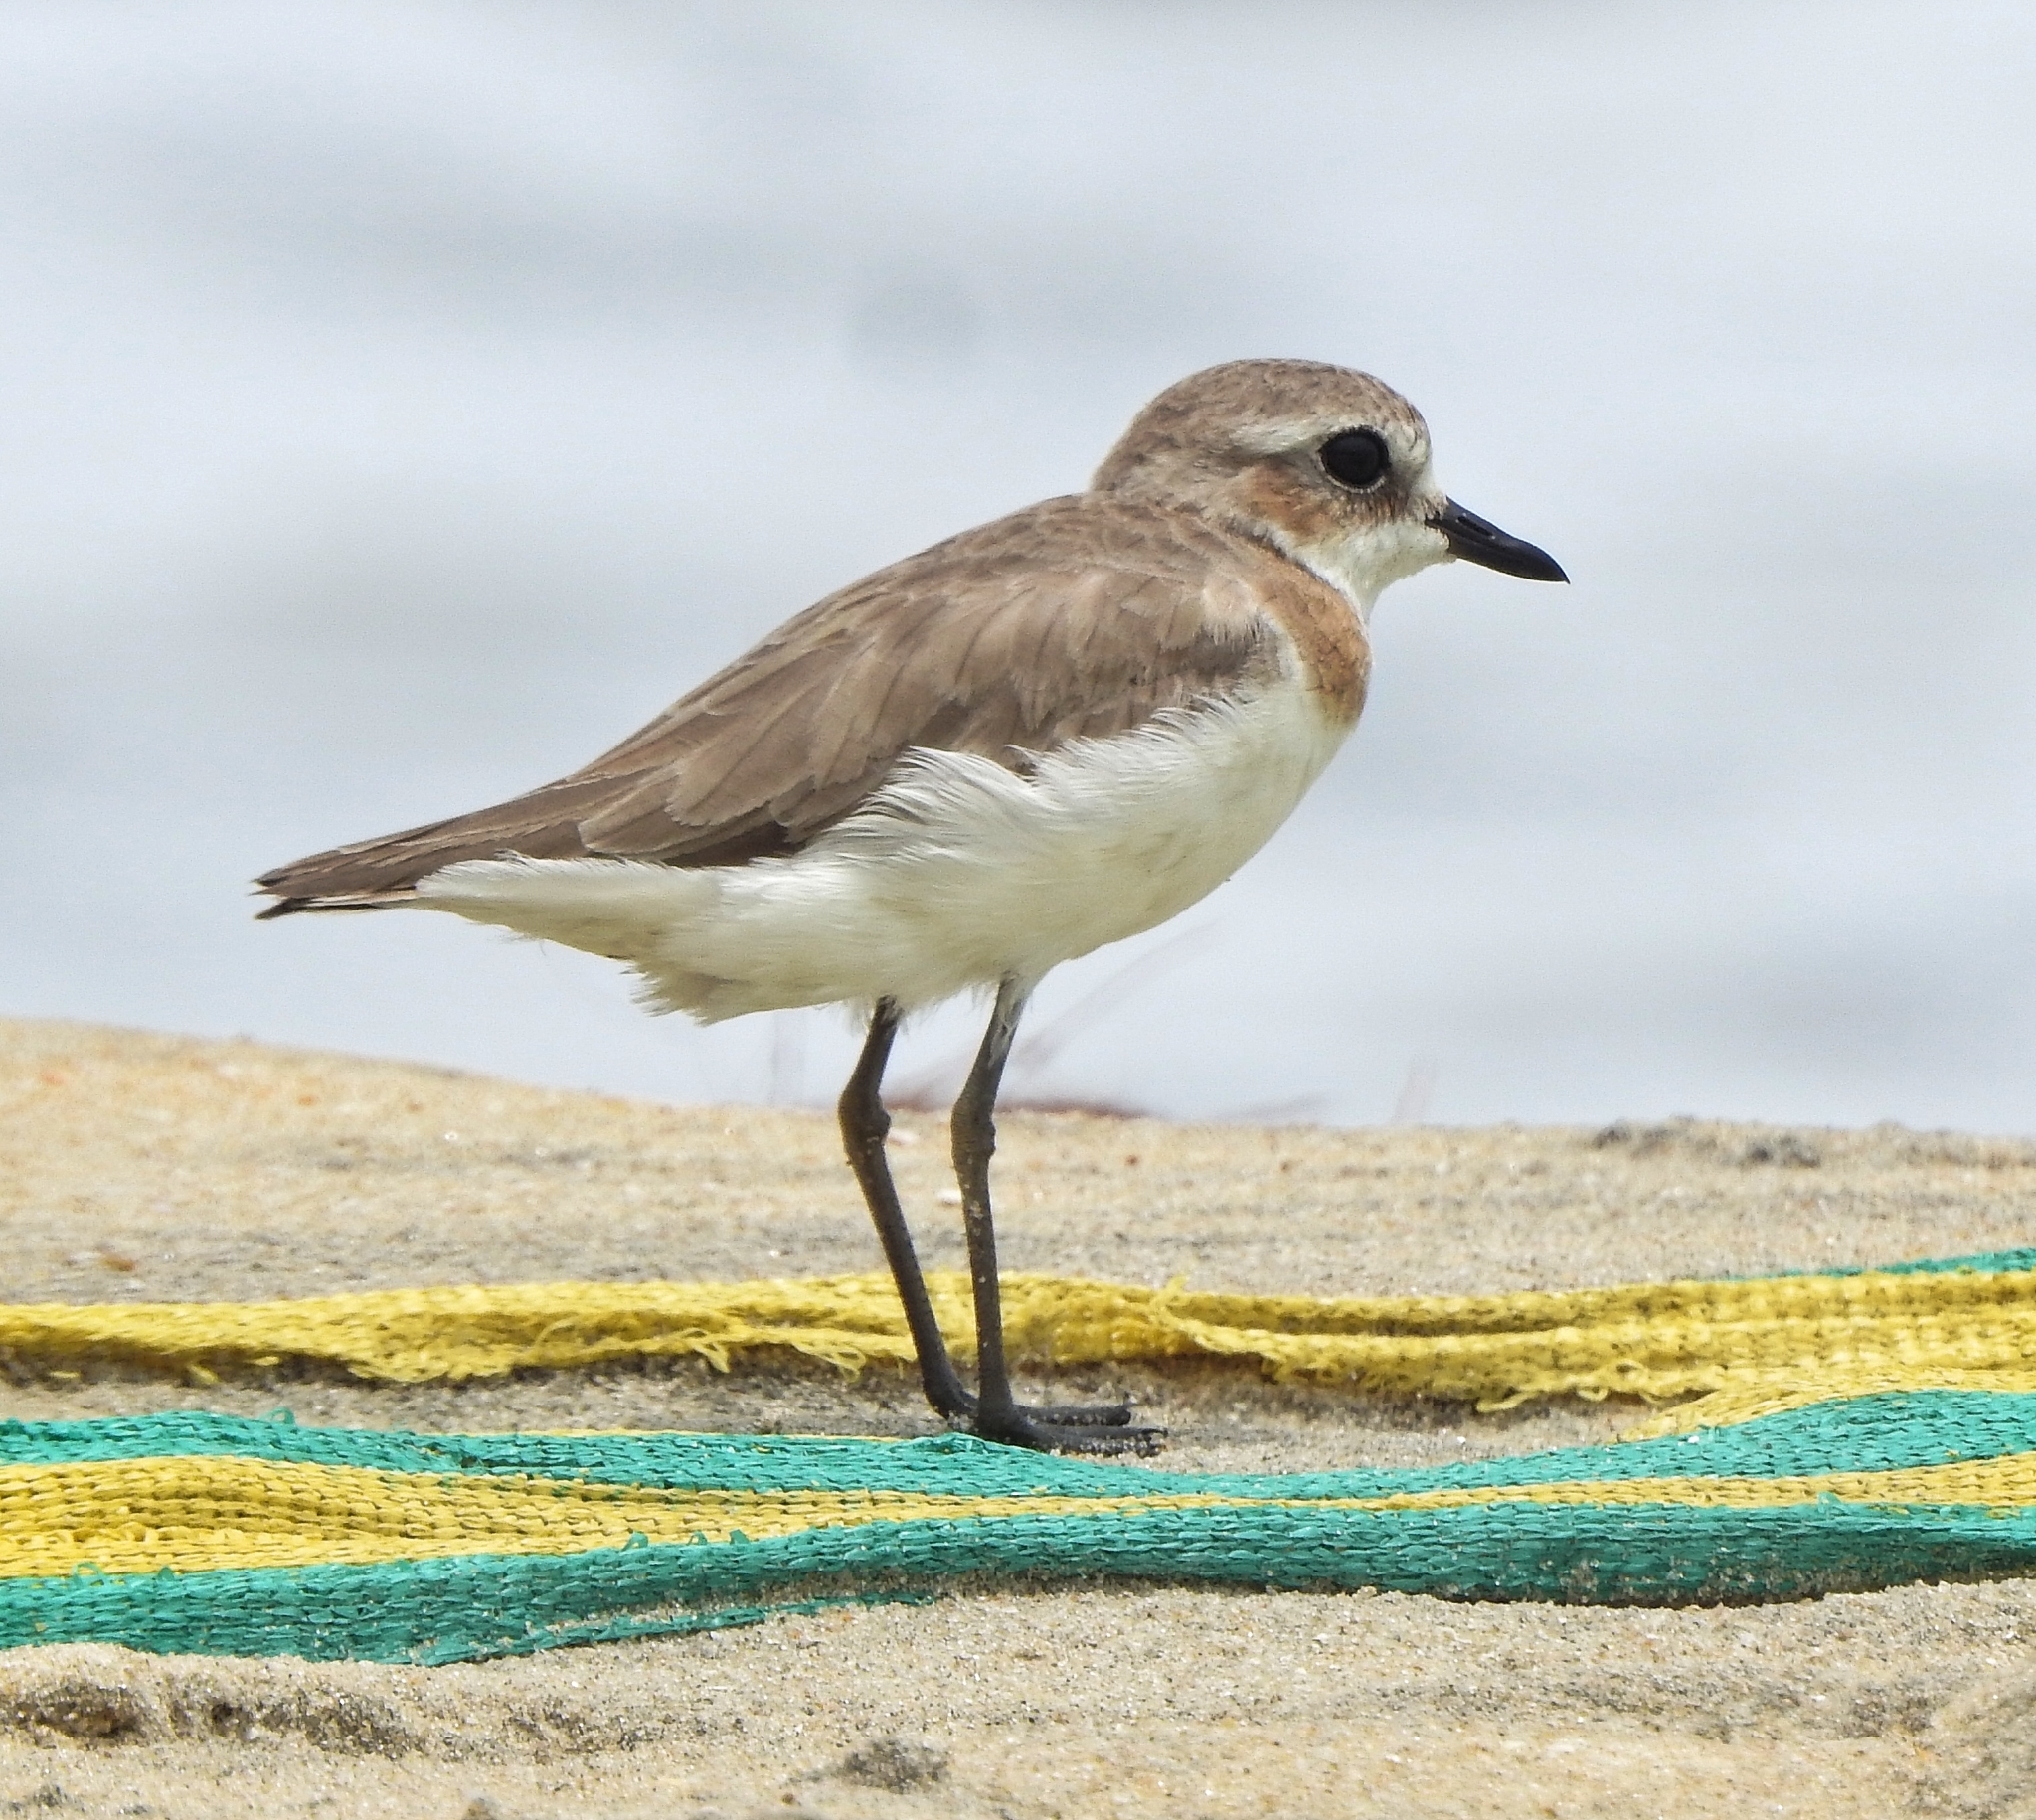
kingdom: Animalia
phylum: Chordata
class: Aves
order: Charadriiformes
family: Charadriidae
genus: Anarhynchus
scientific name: Anarhynchus
